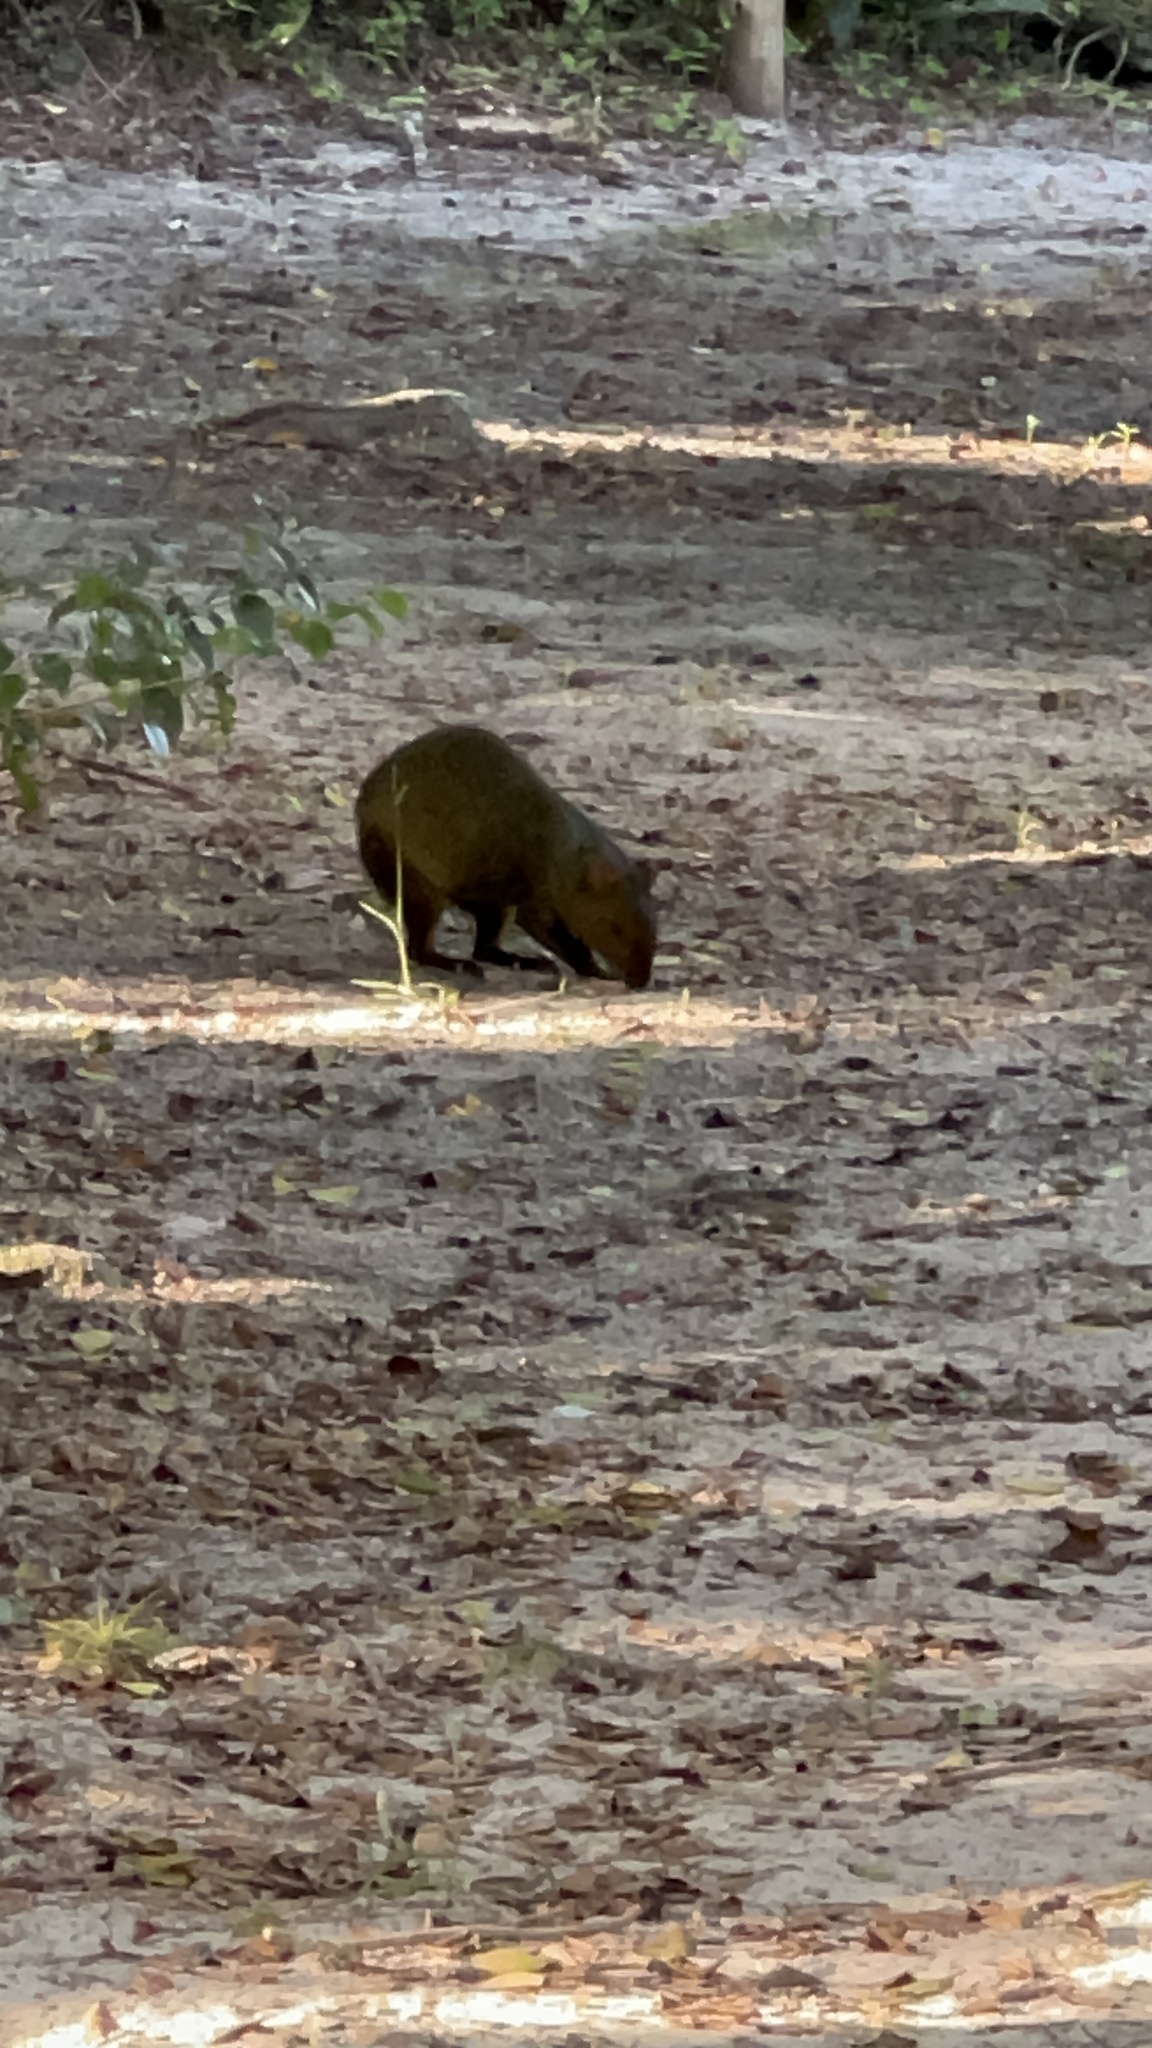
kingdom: Animalia
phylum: Chordata
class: Mammalia
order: Rodentia
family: Dasyproctidae
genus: Dasyprocta
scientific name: Dasyprocta azarae
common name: Azara's agouti
